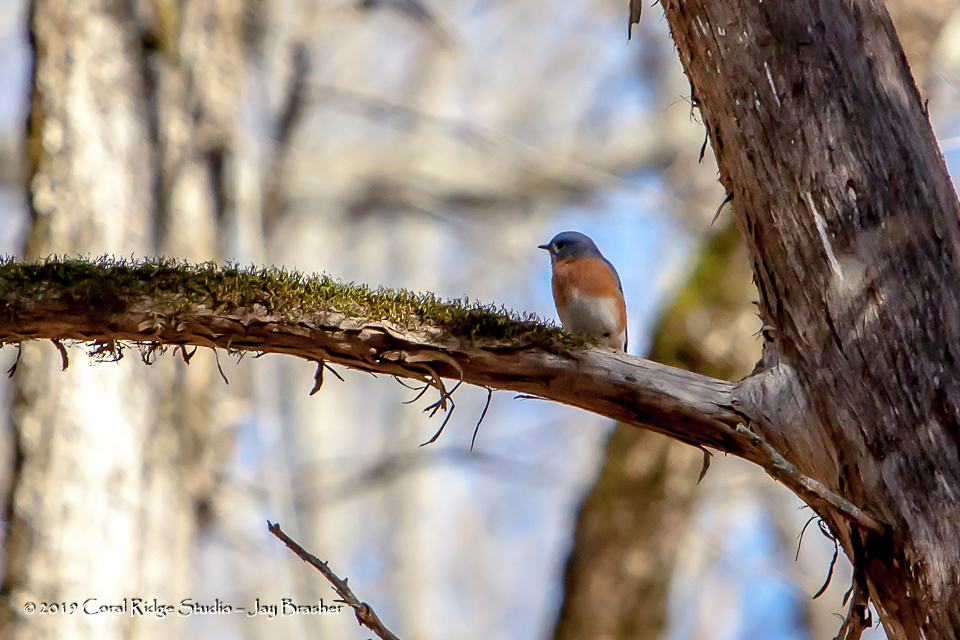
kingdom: Animalia
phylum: Chordata
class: Aves
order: Passeriformes
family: Turdidae
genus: Sialia
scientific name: Sialia sialis
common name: Eastern bluebird
